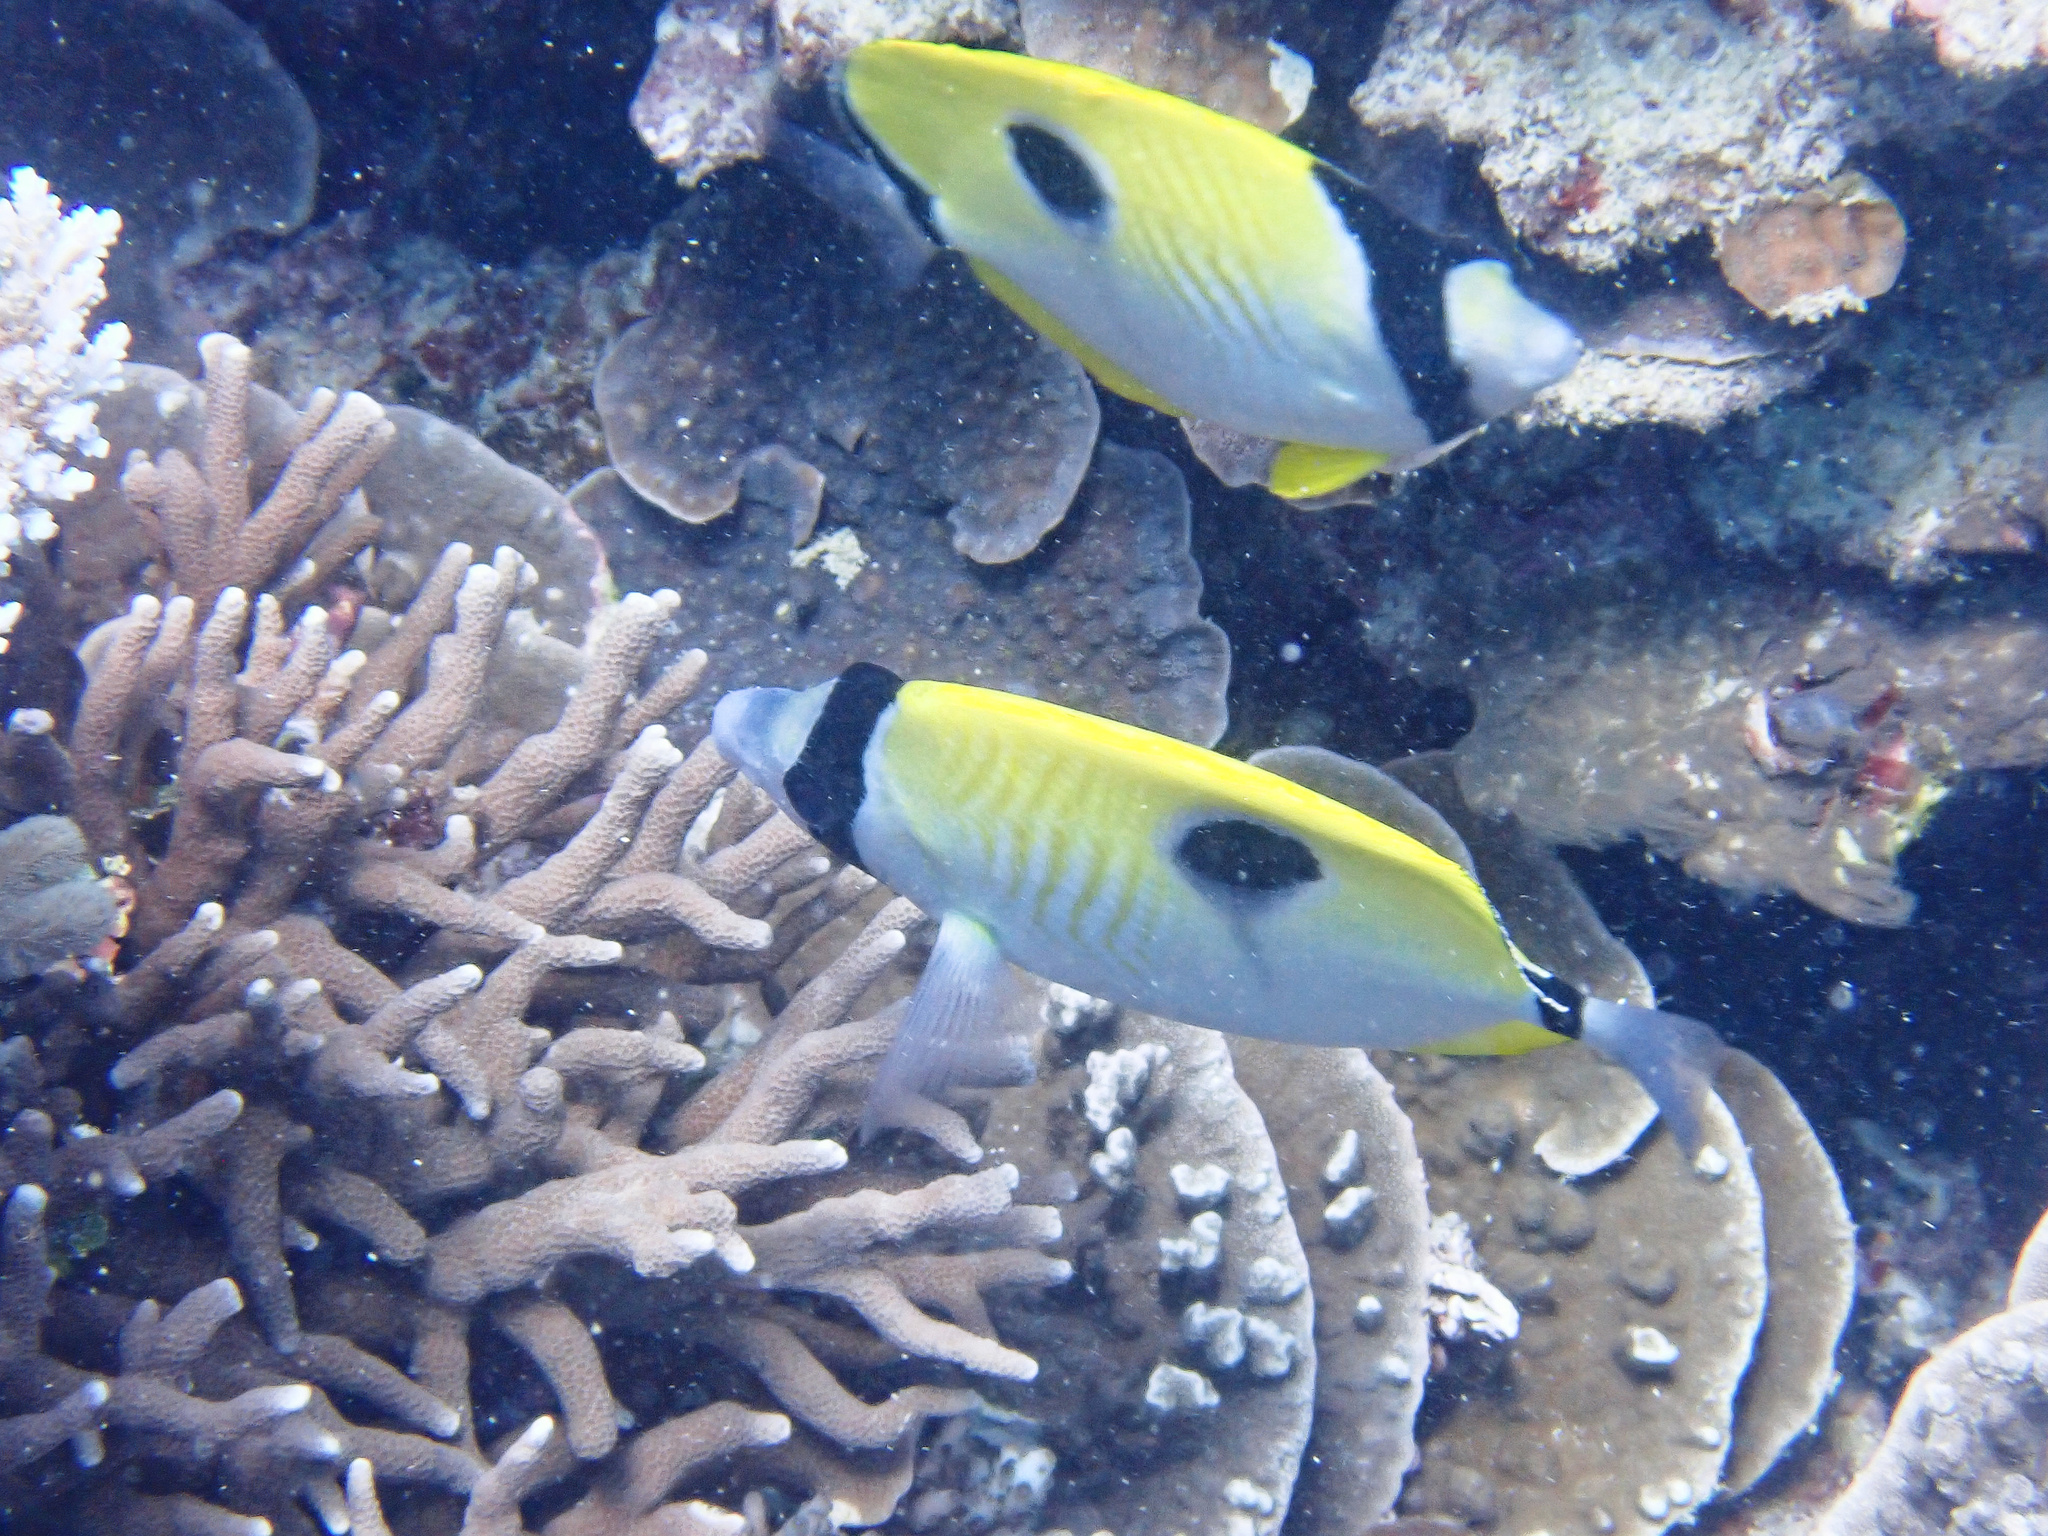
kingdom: Animalia
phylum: Chordata
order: Perciformes
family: Chaetodontidae
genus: Chaetodon
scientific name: Chaetodon unimaculatus
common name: Teardrop butterflyfish
